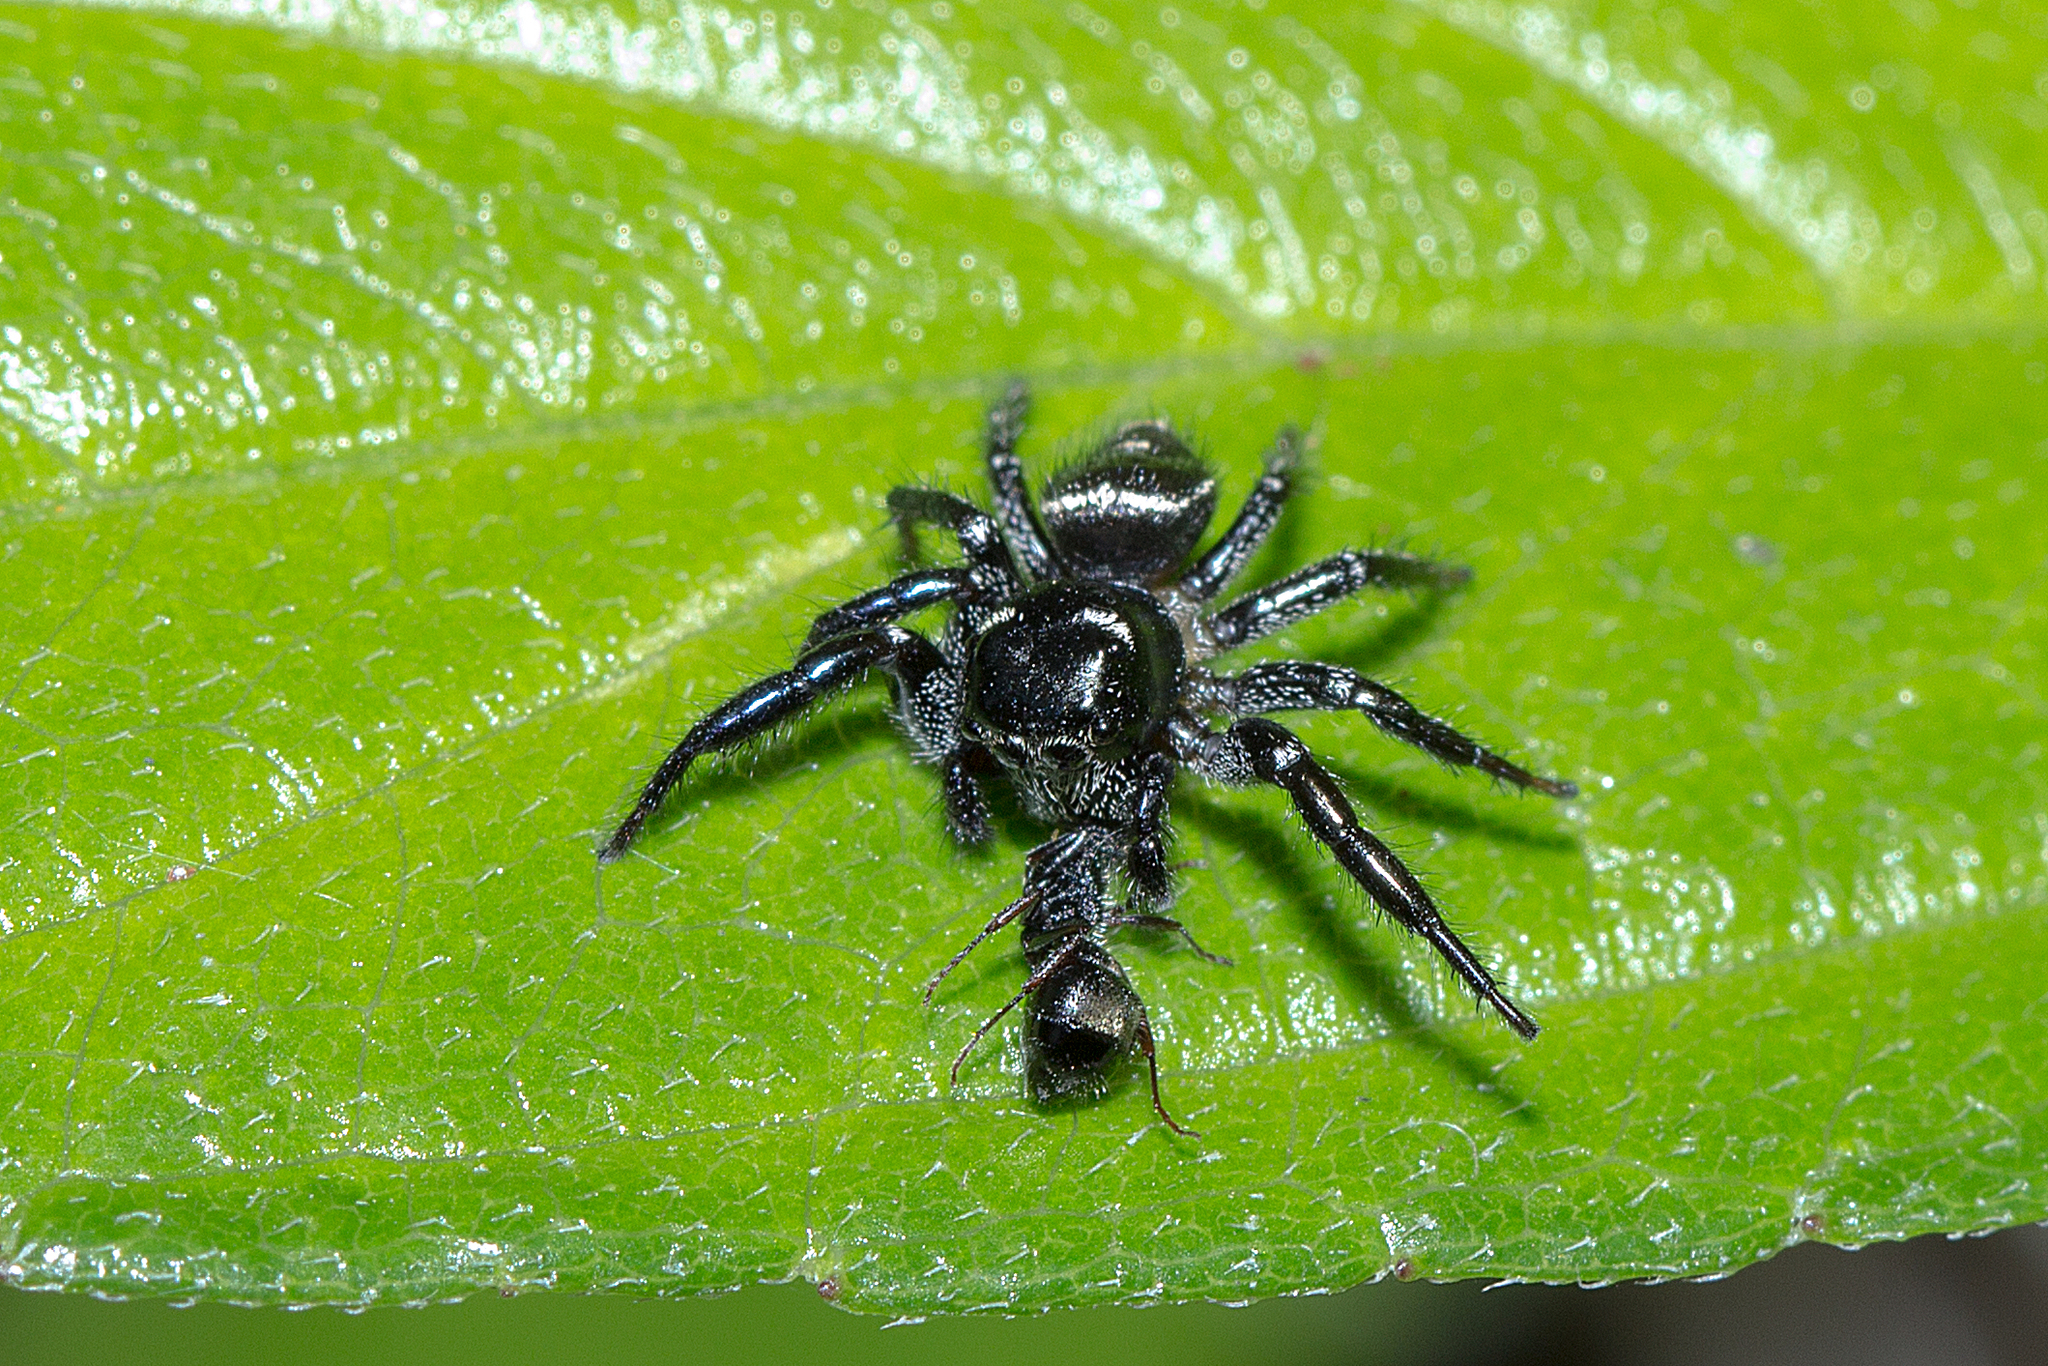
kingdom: Animalia
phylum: Arthropoda
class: Arachnida
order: Araneae
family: Salticidae
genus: Zenodorus
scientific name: Zenodorus orbiculatus
